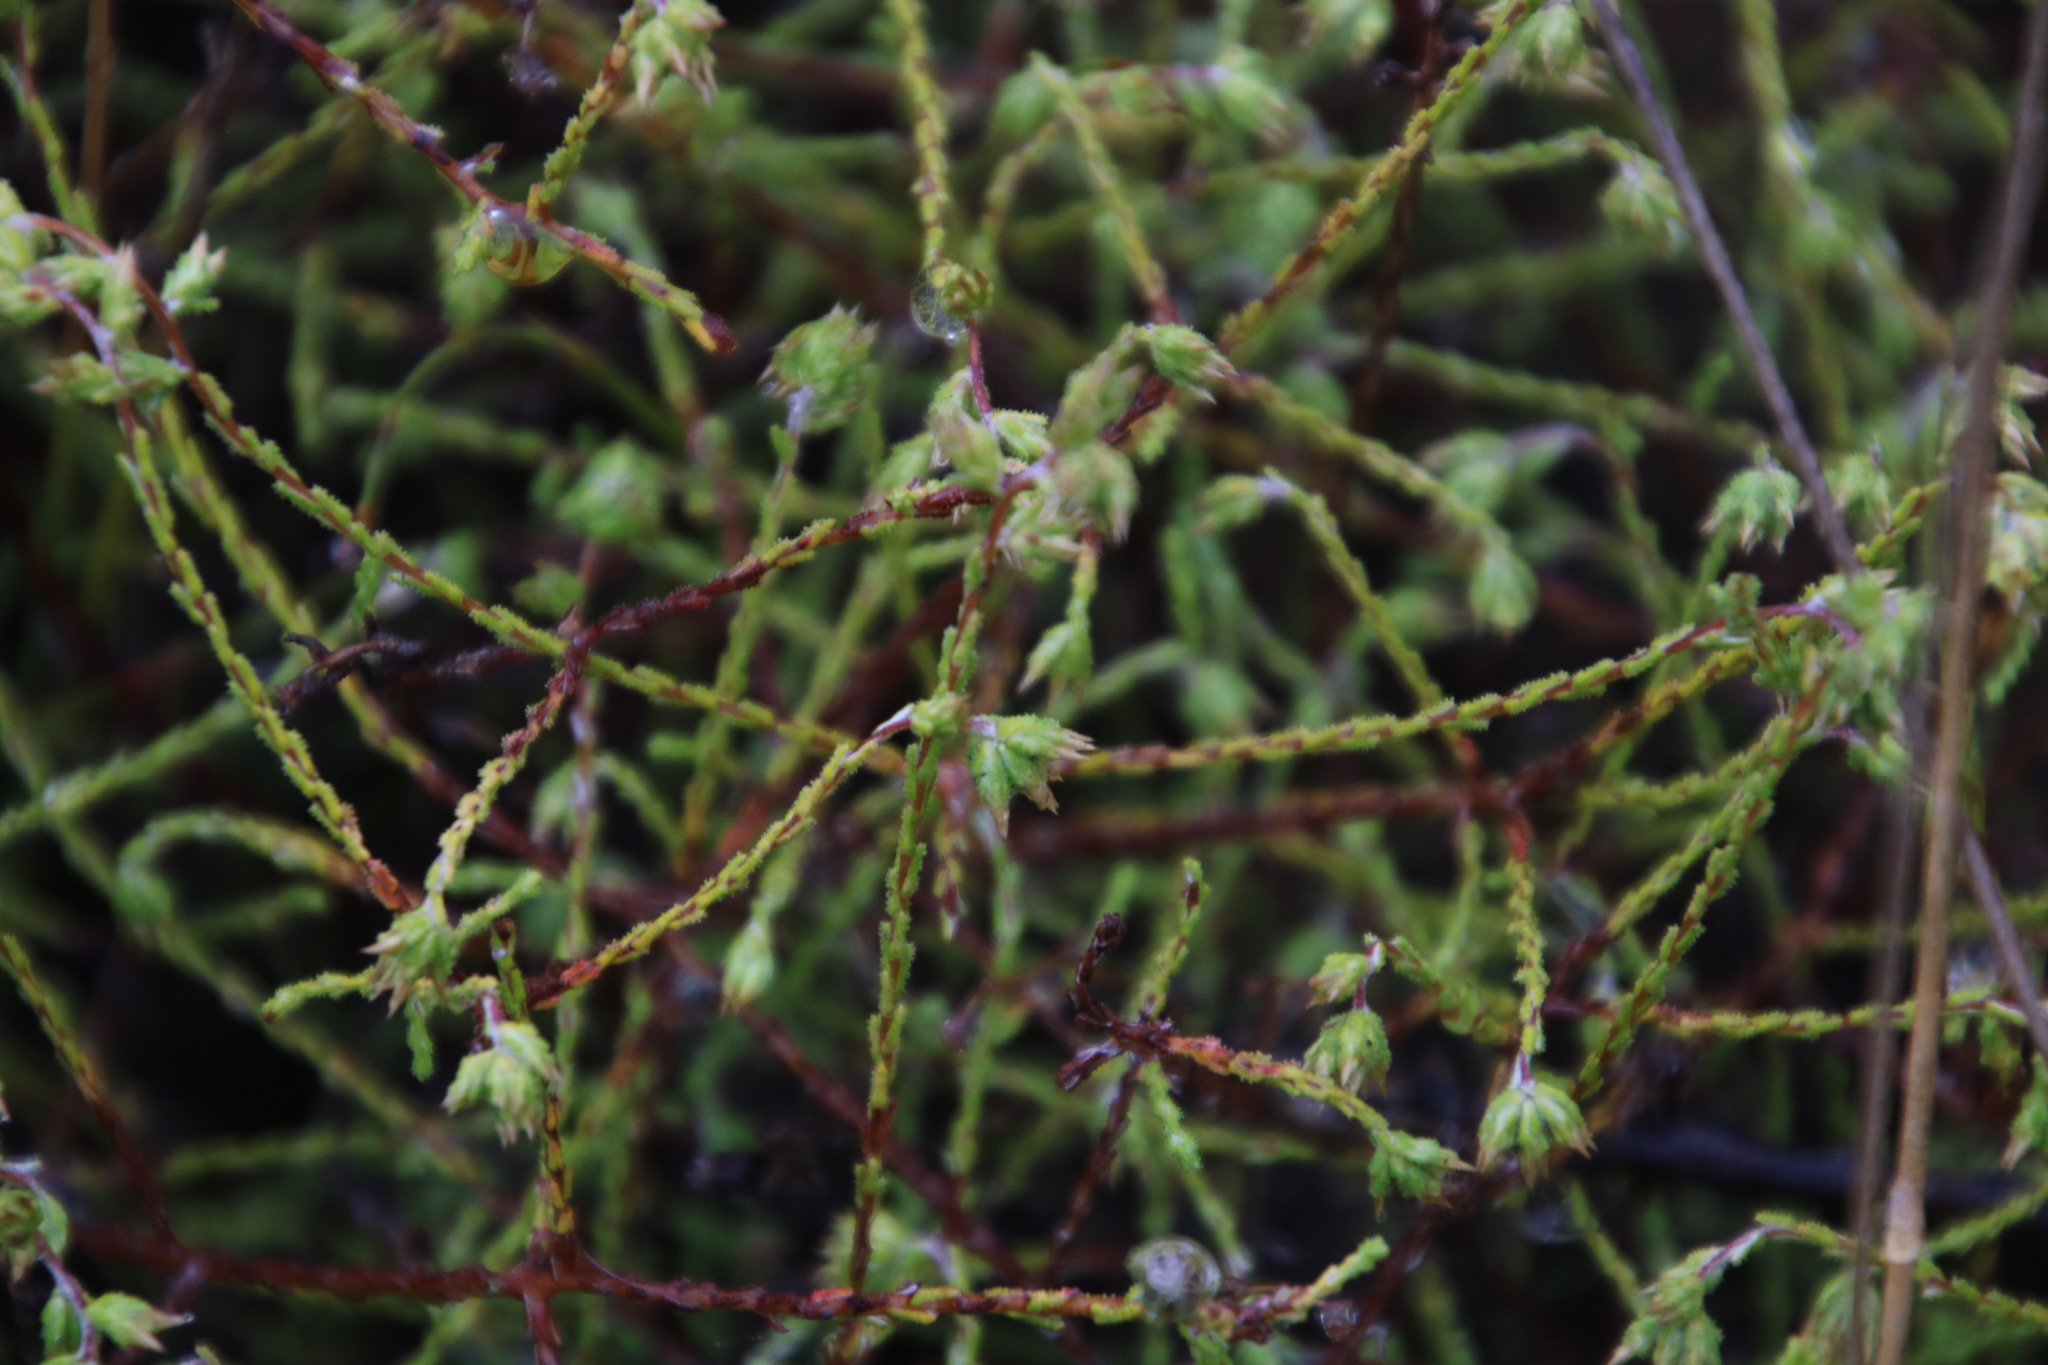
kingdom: Plantae
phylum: Tracheophyta
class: Magnoliopsida
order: Asterales
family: Asteraceae
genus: Myrovernix
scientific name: Myrovernix scaber
